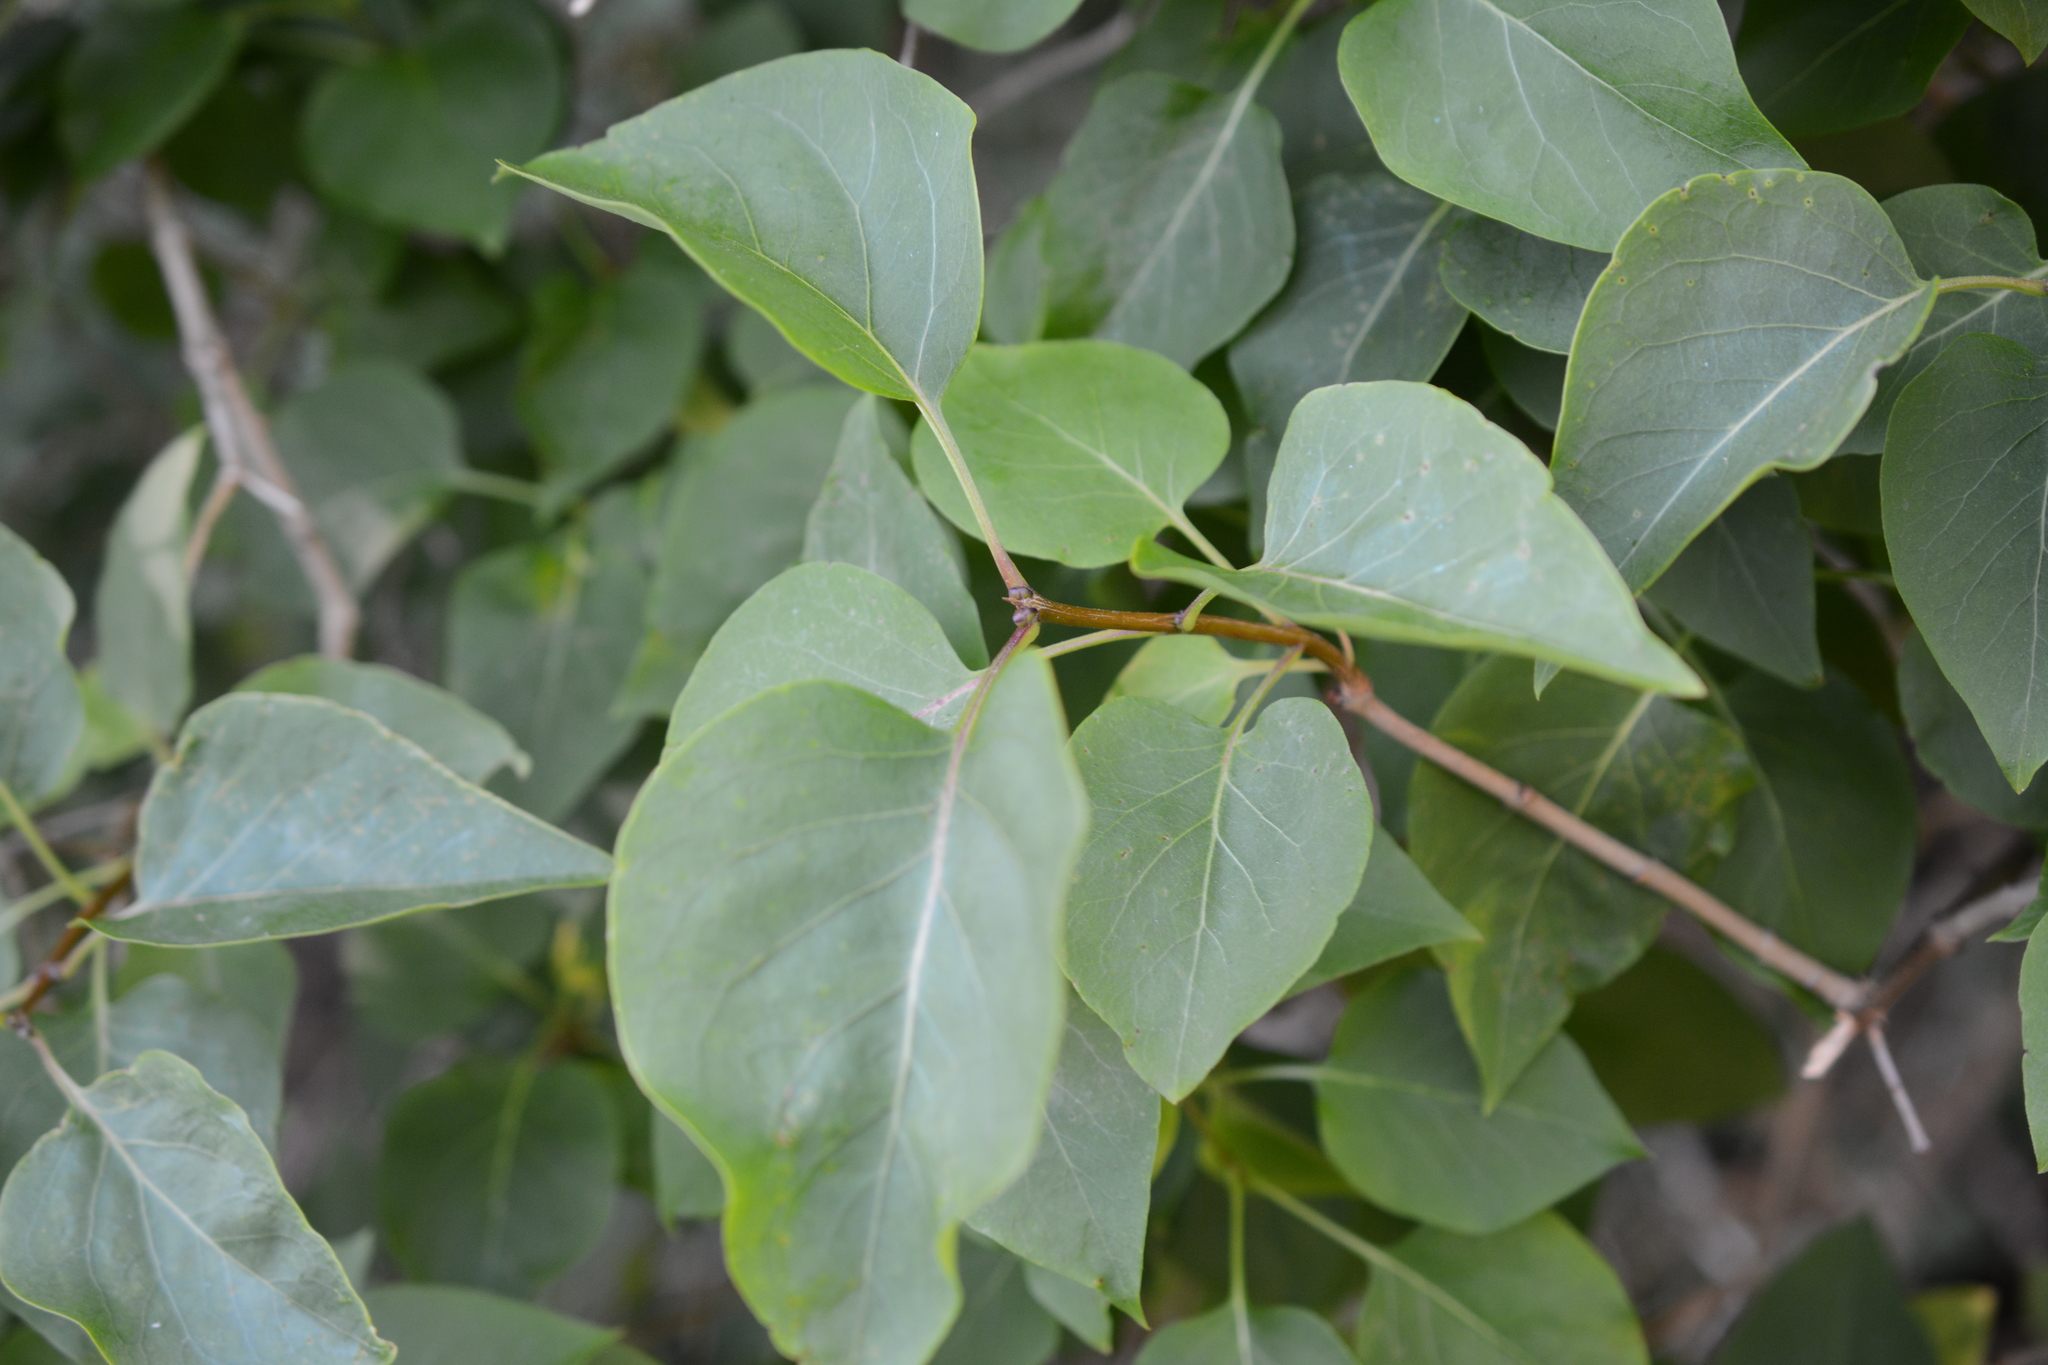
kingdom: Plantae
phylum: Tracheophyta
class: Magnoliopsida
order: Lamiales
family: Oleaceae
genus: Syringa
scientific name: Syringa vulgaris
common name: Common lilac
